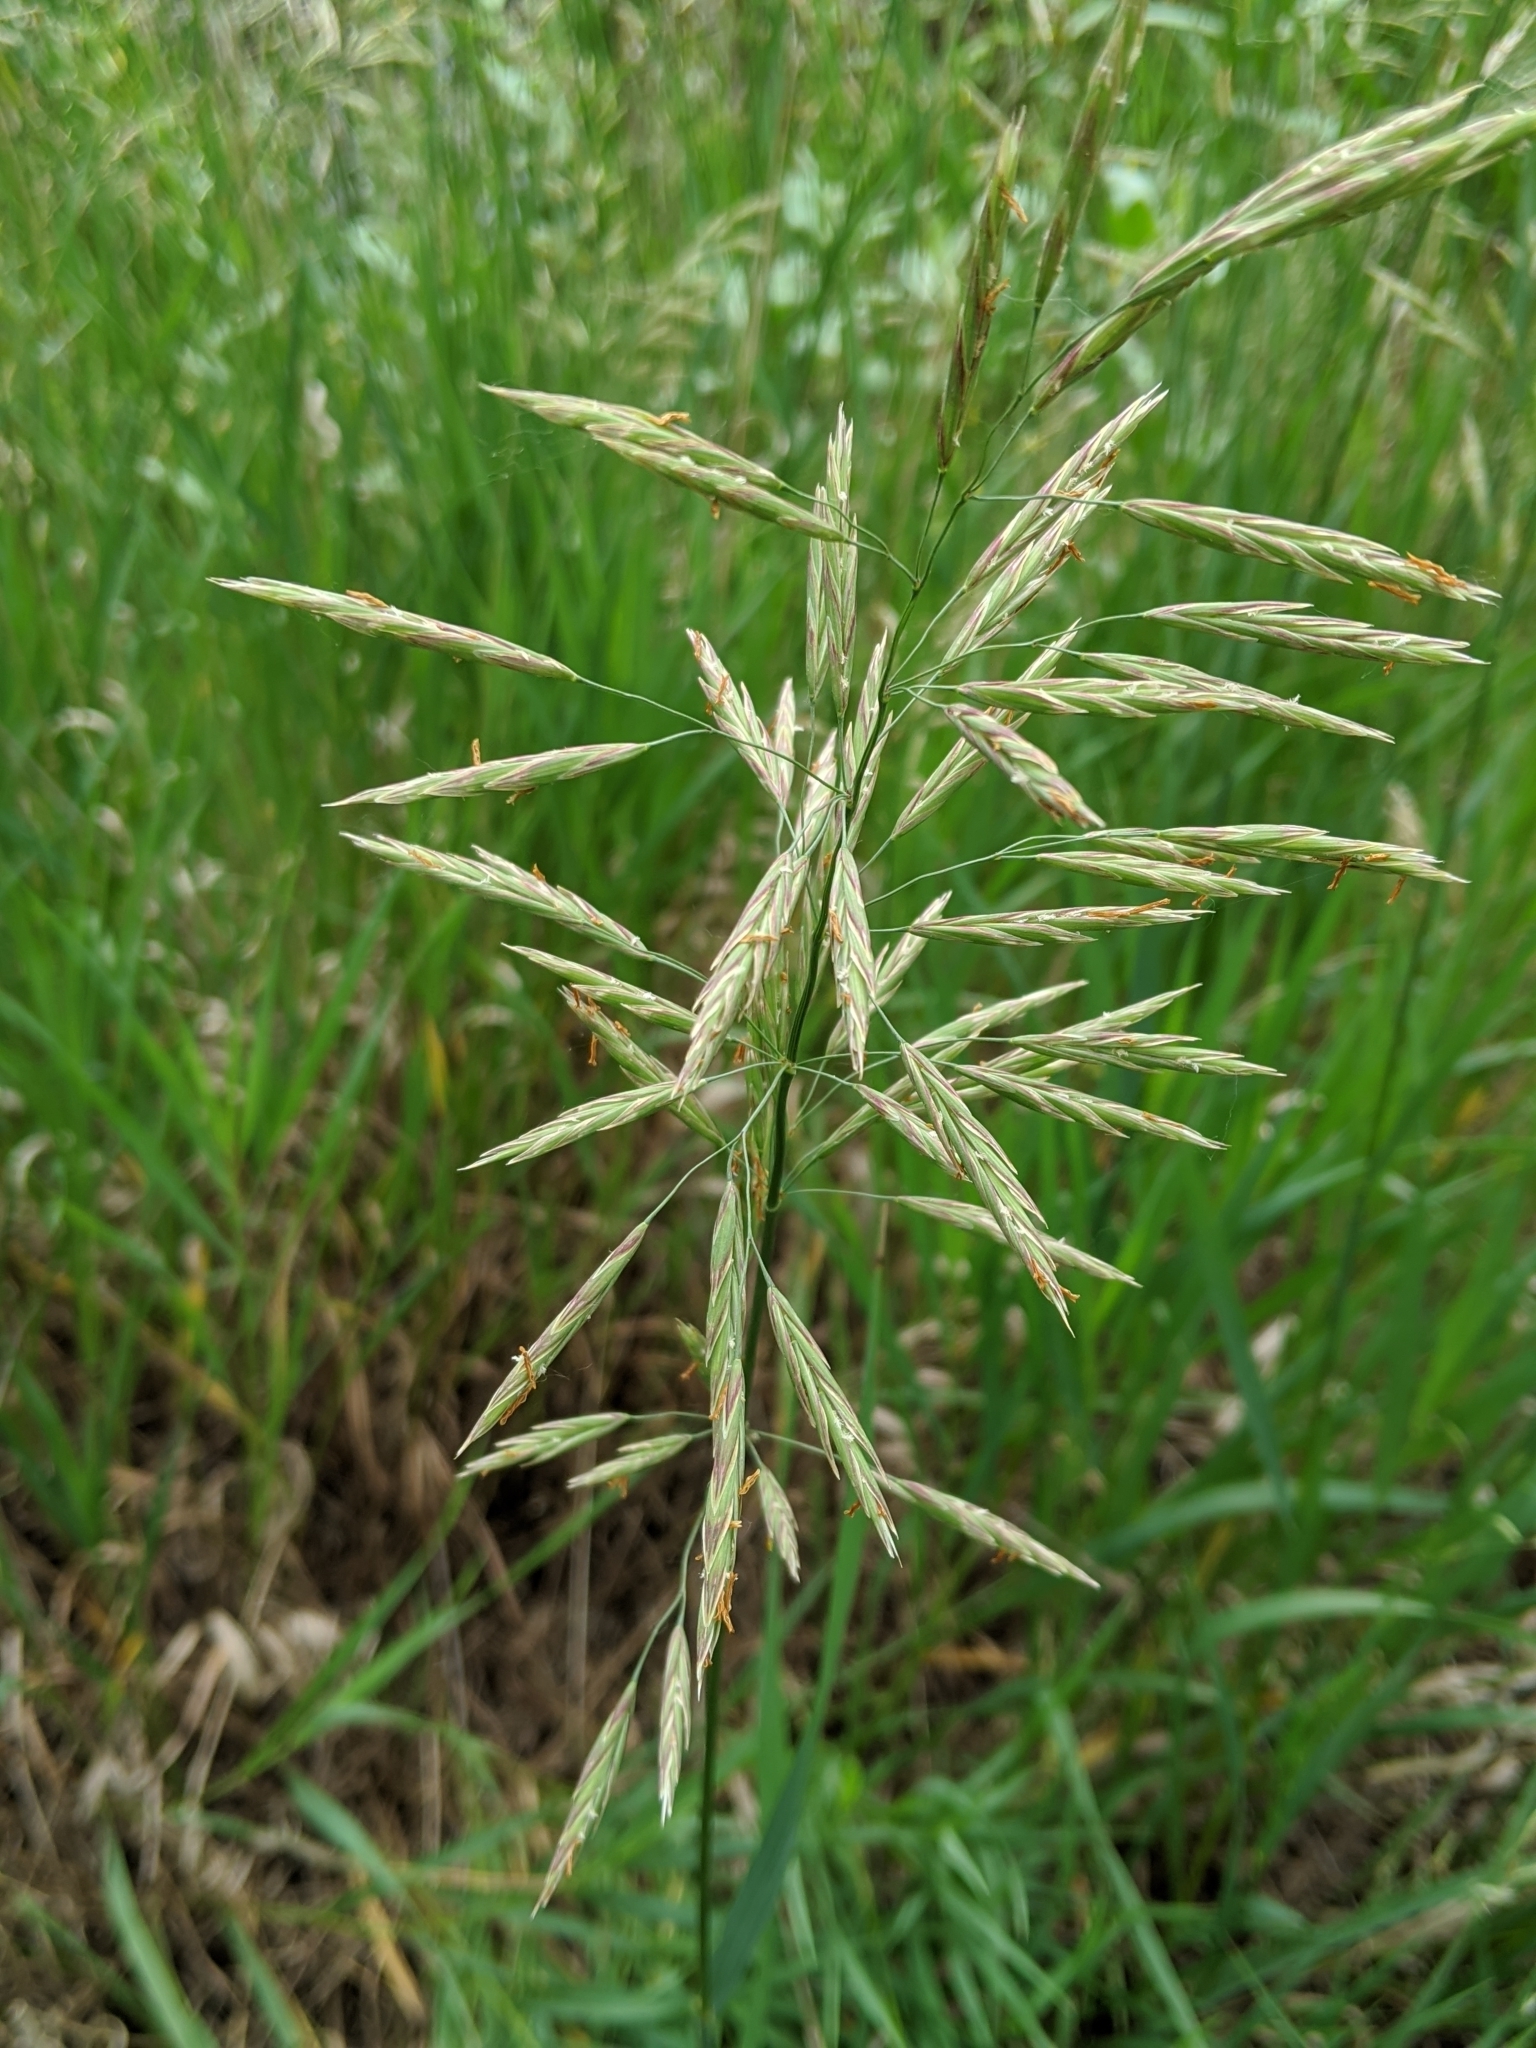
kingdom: Plantae
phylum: Tracheophyta
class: Liliopsida
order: Poales
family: Poaceae
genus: Bromus
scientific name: Bromus inermis
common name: Smooth brome
